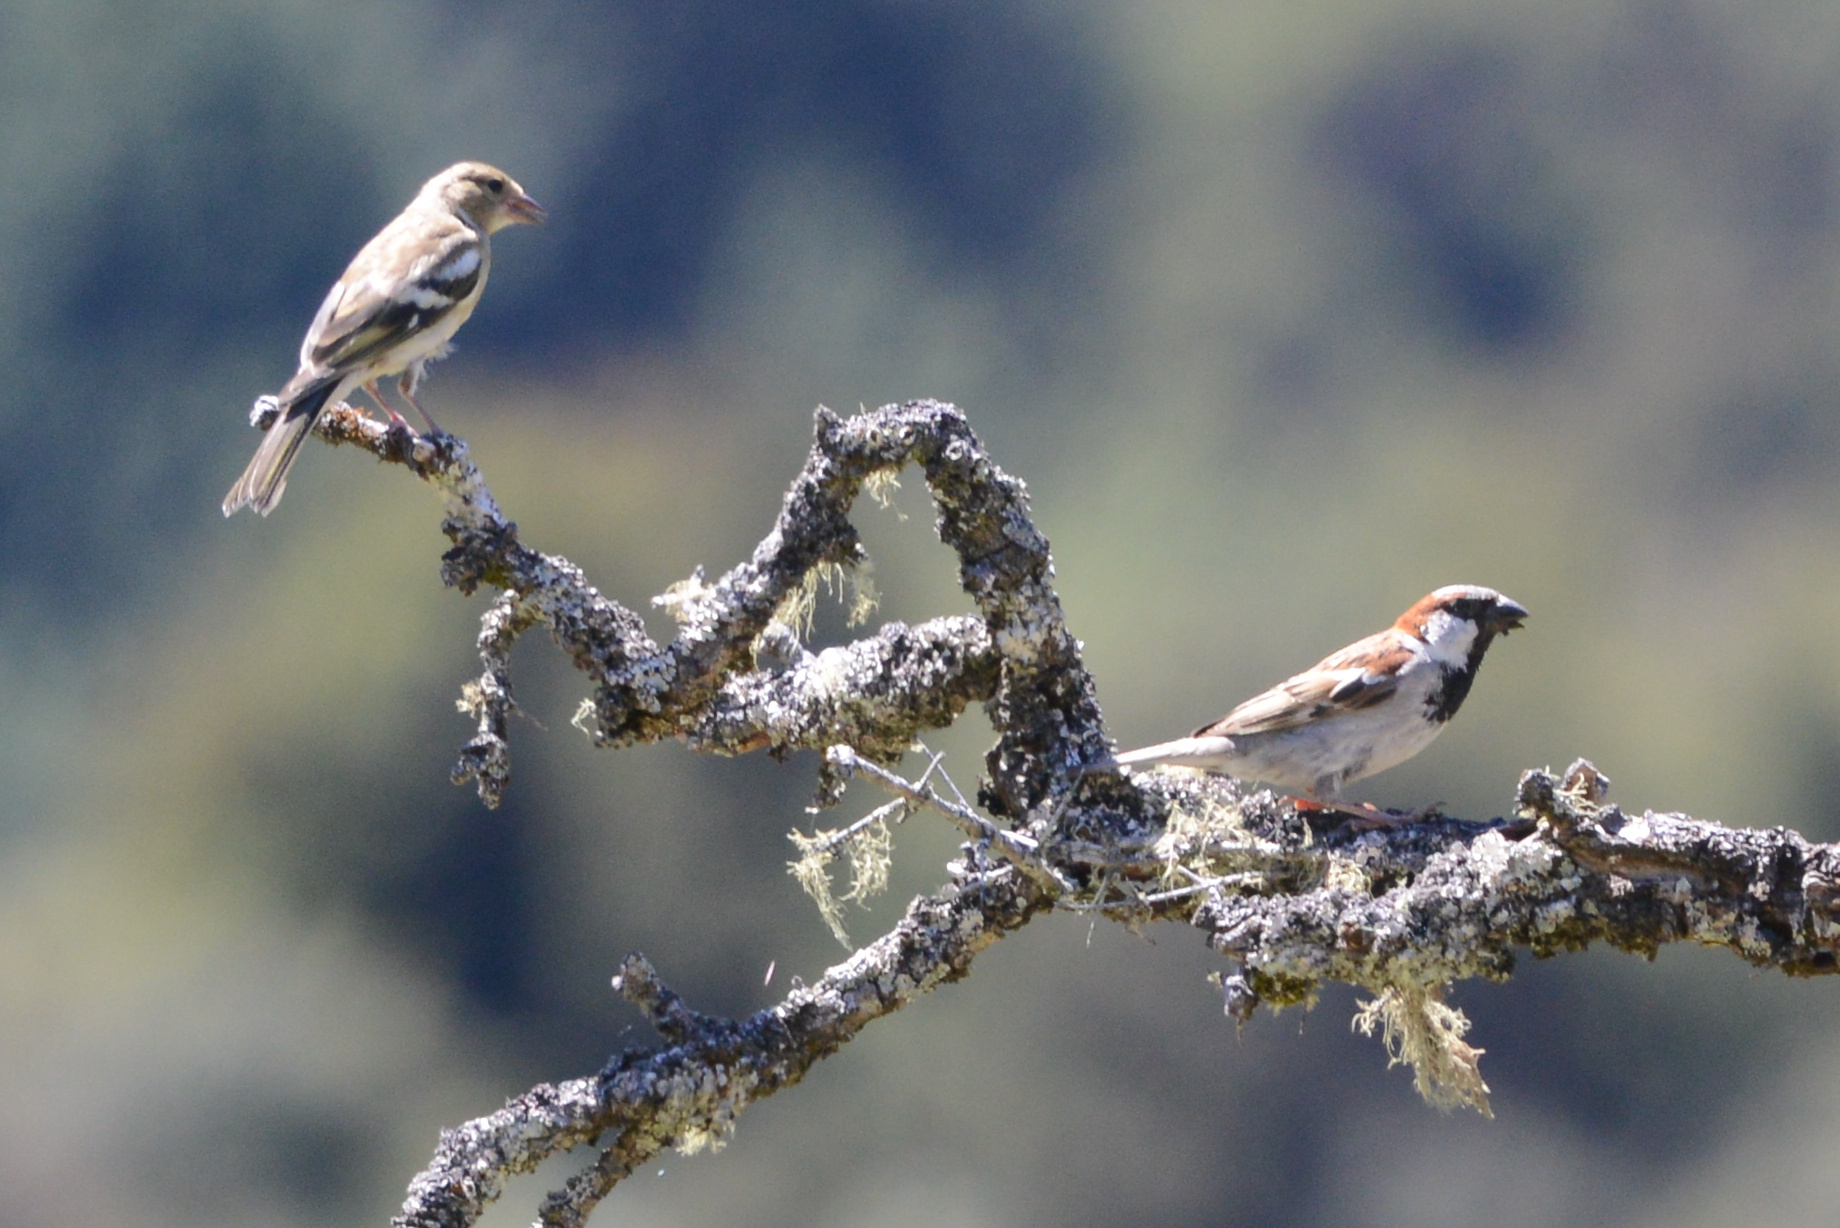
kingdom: Animalia
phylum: Chordata
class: Aves
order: Passeriformes
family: Fringillidae
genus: Fringilla
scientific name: Fringilla coelebs
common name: Common chaffinch
